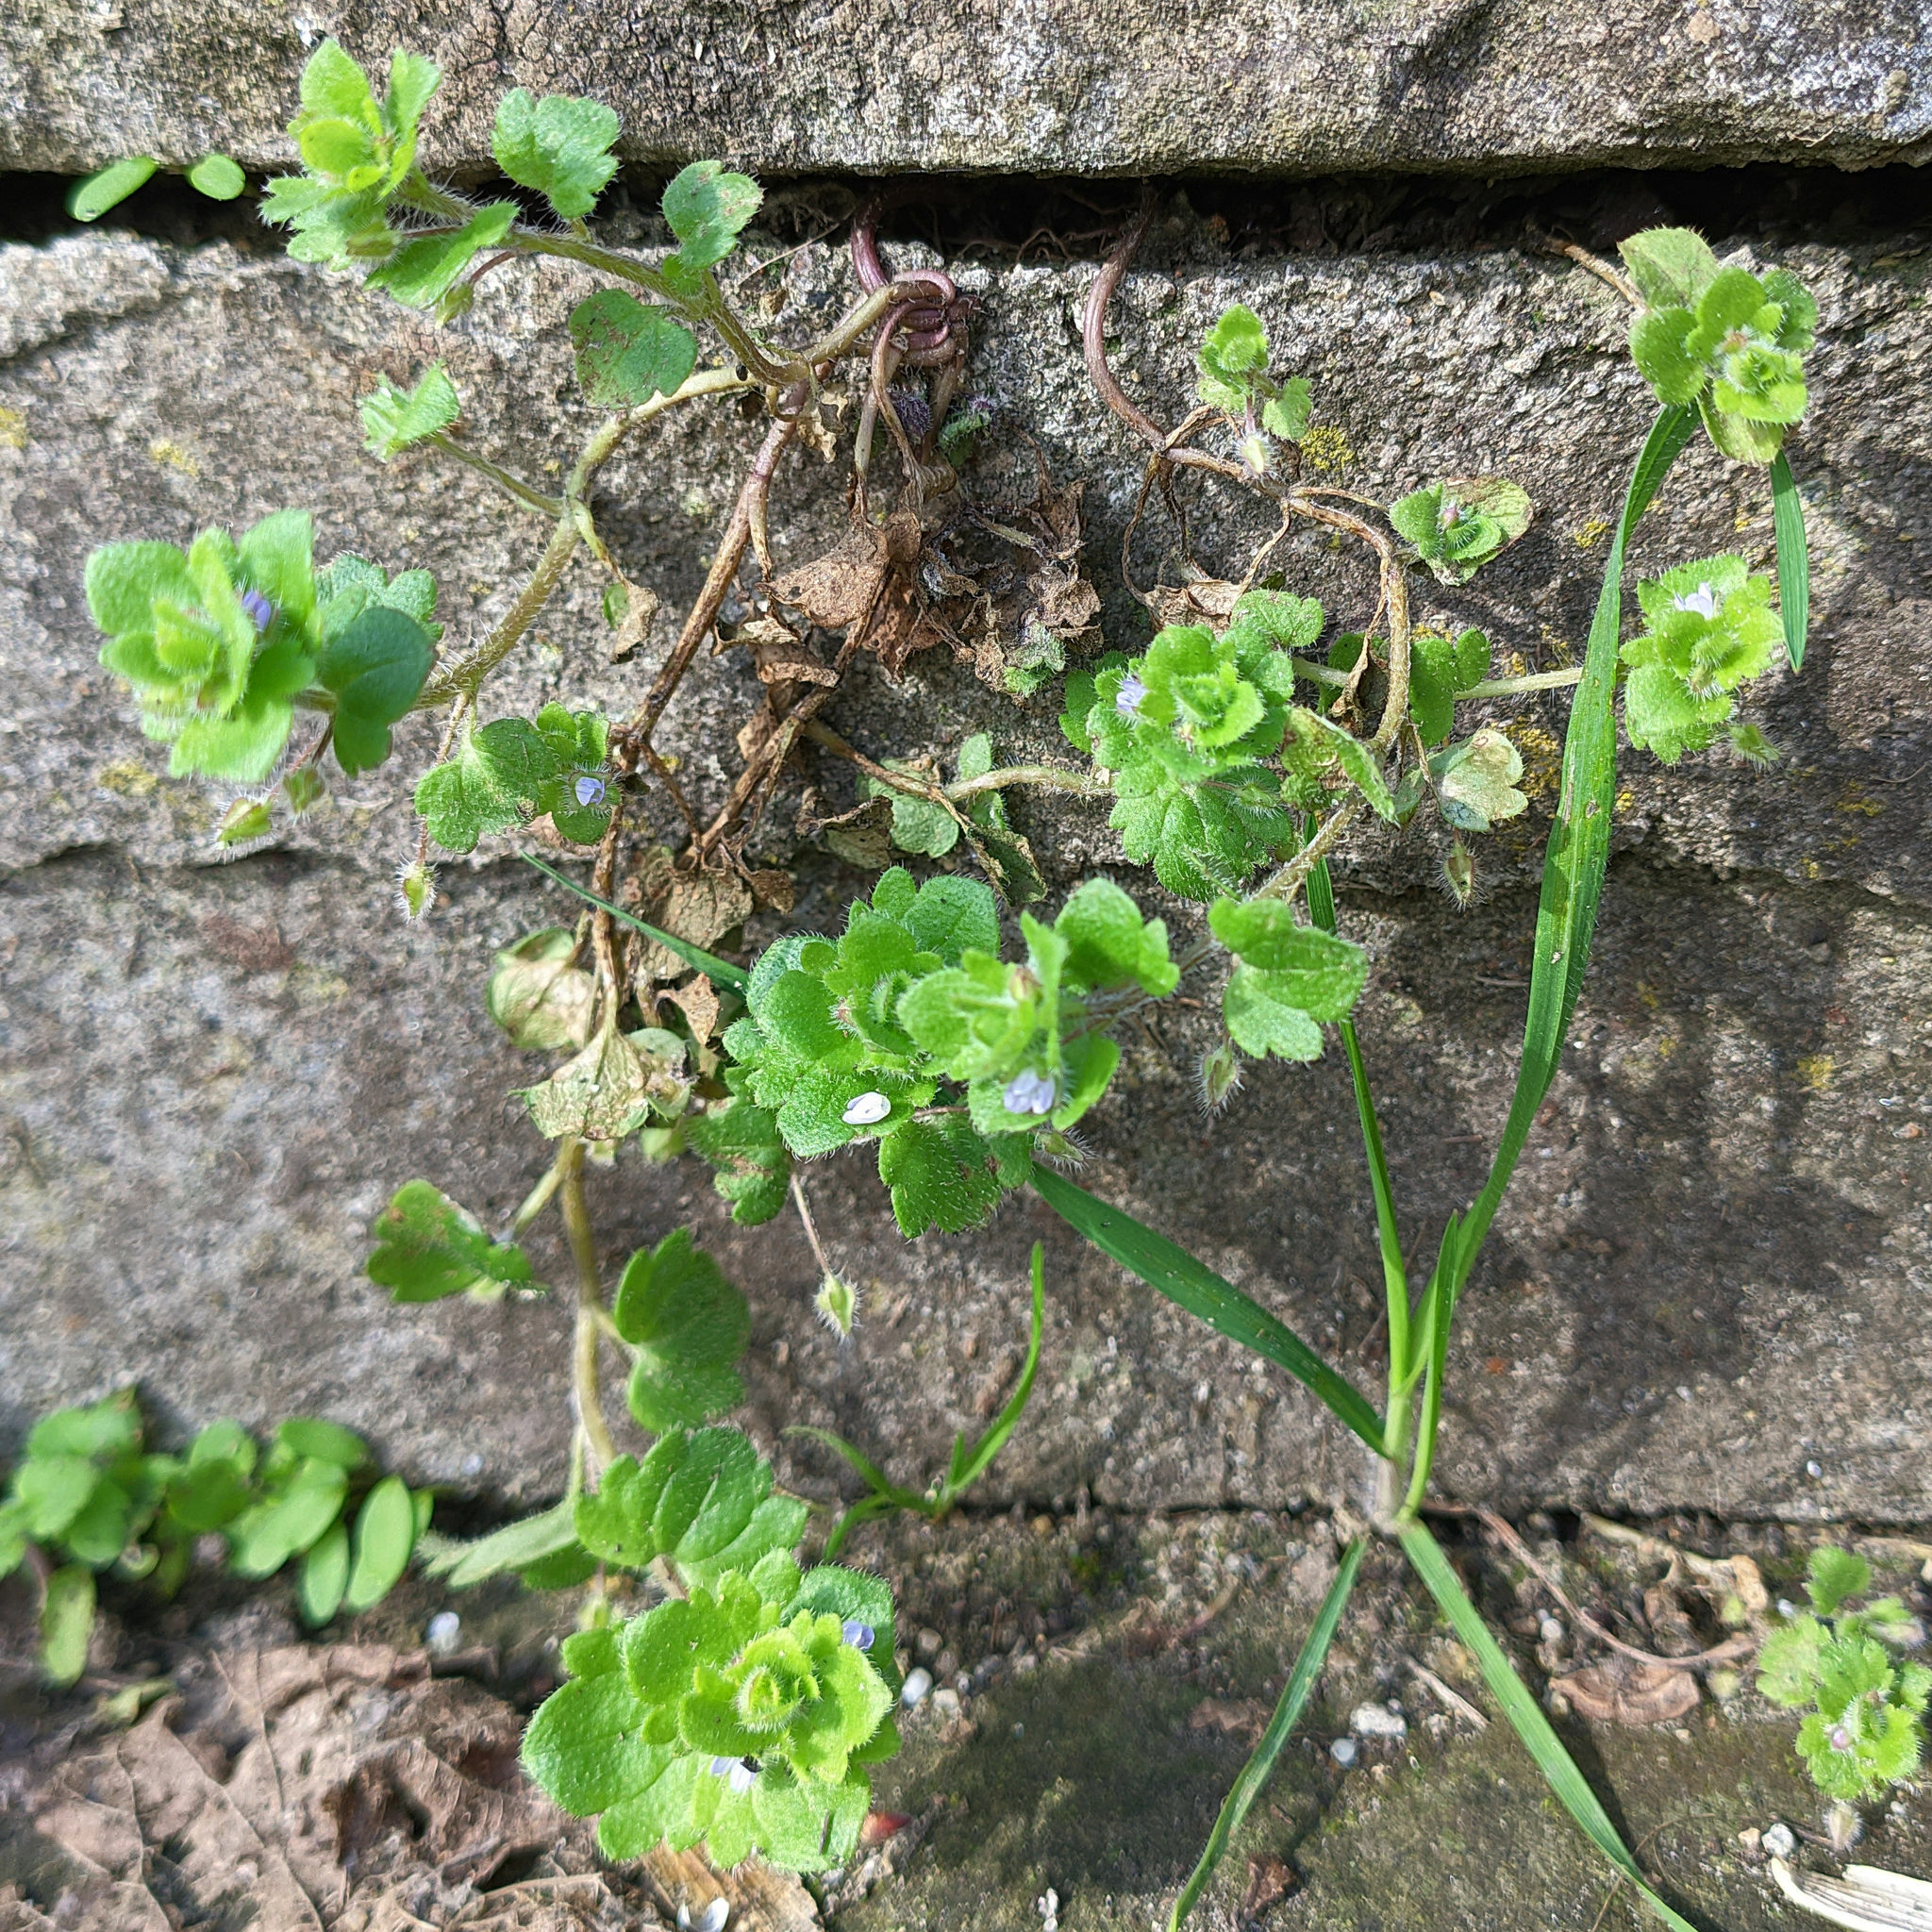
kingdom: Plantae
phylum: Tracheophyta
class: Magnoliopsida
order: Lamiales
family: Plantaginaceae
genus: Veronica
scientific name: Veronica hederifolia
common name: Ivy-leaved speedwell
